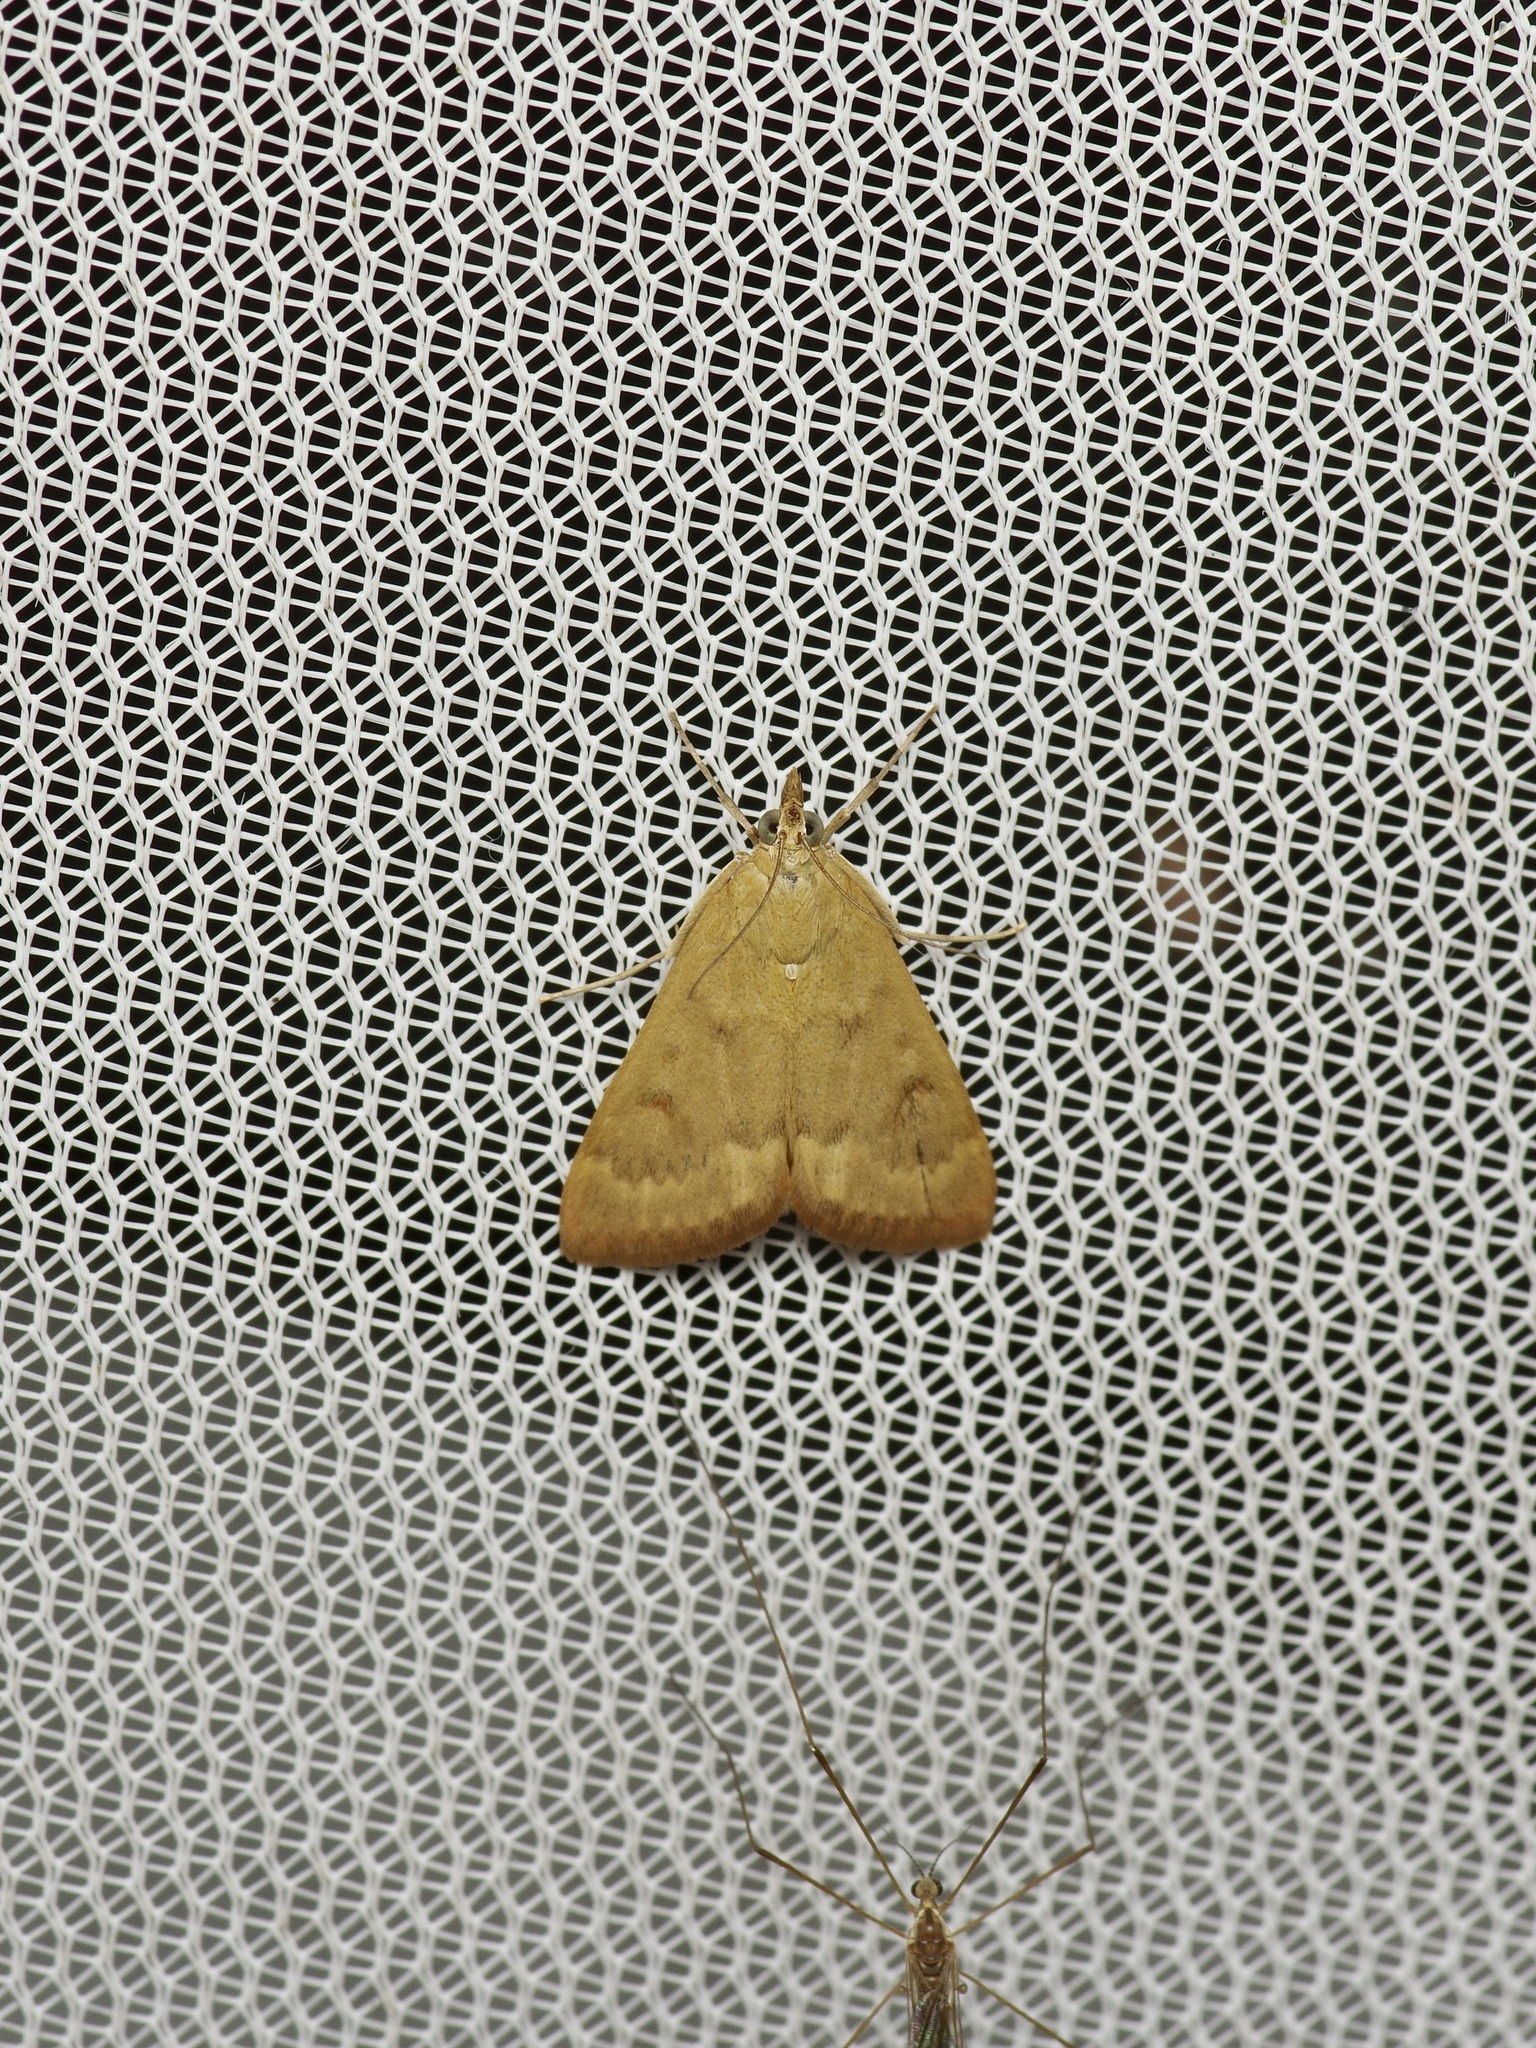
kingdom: Animalia
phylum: Arthropoda
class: Insecta
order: Lepidoptera
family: Crambidae
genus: Achyra
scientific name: Achyra rantalis
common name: Garden webworm
